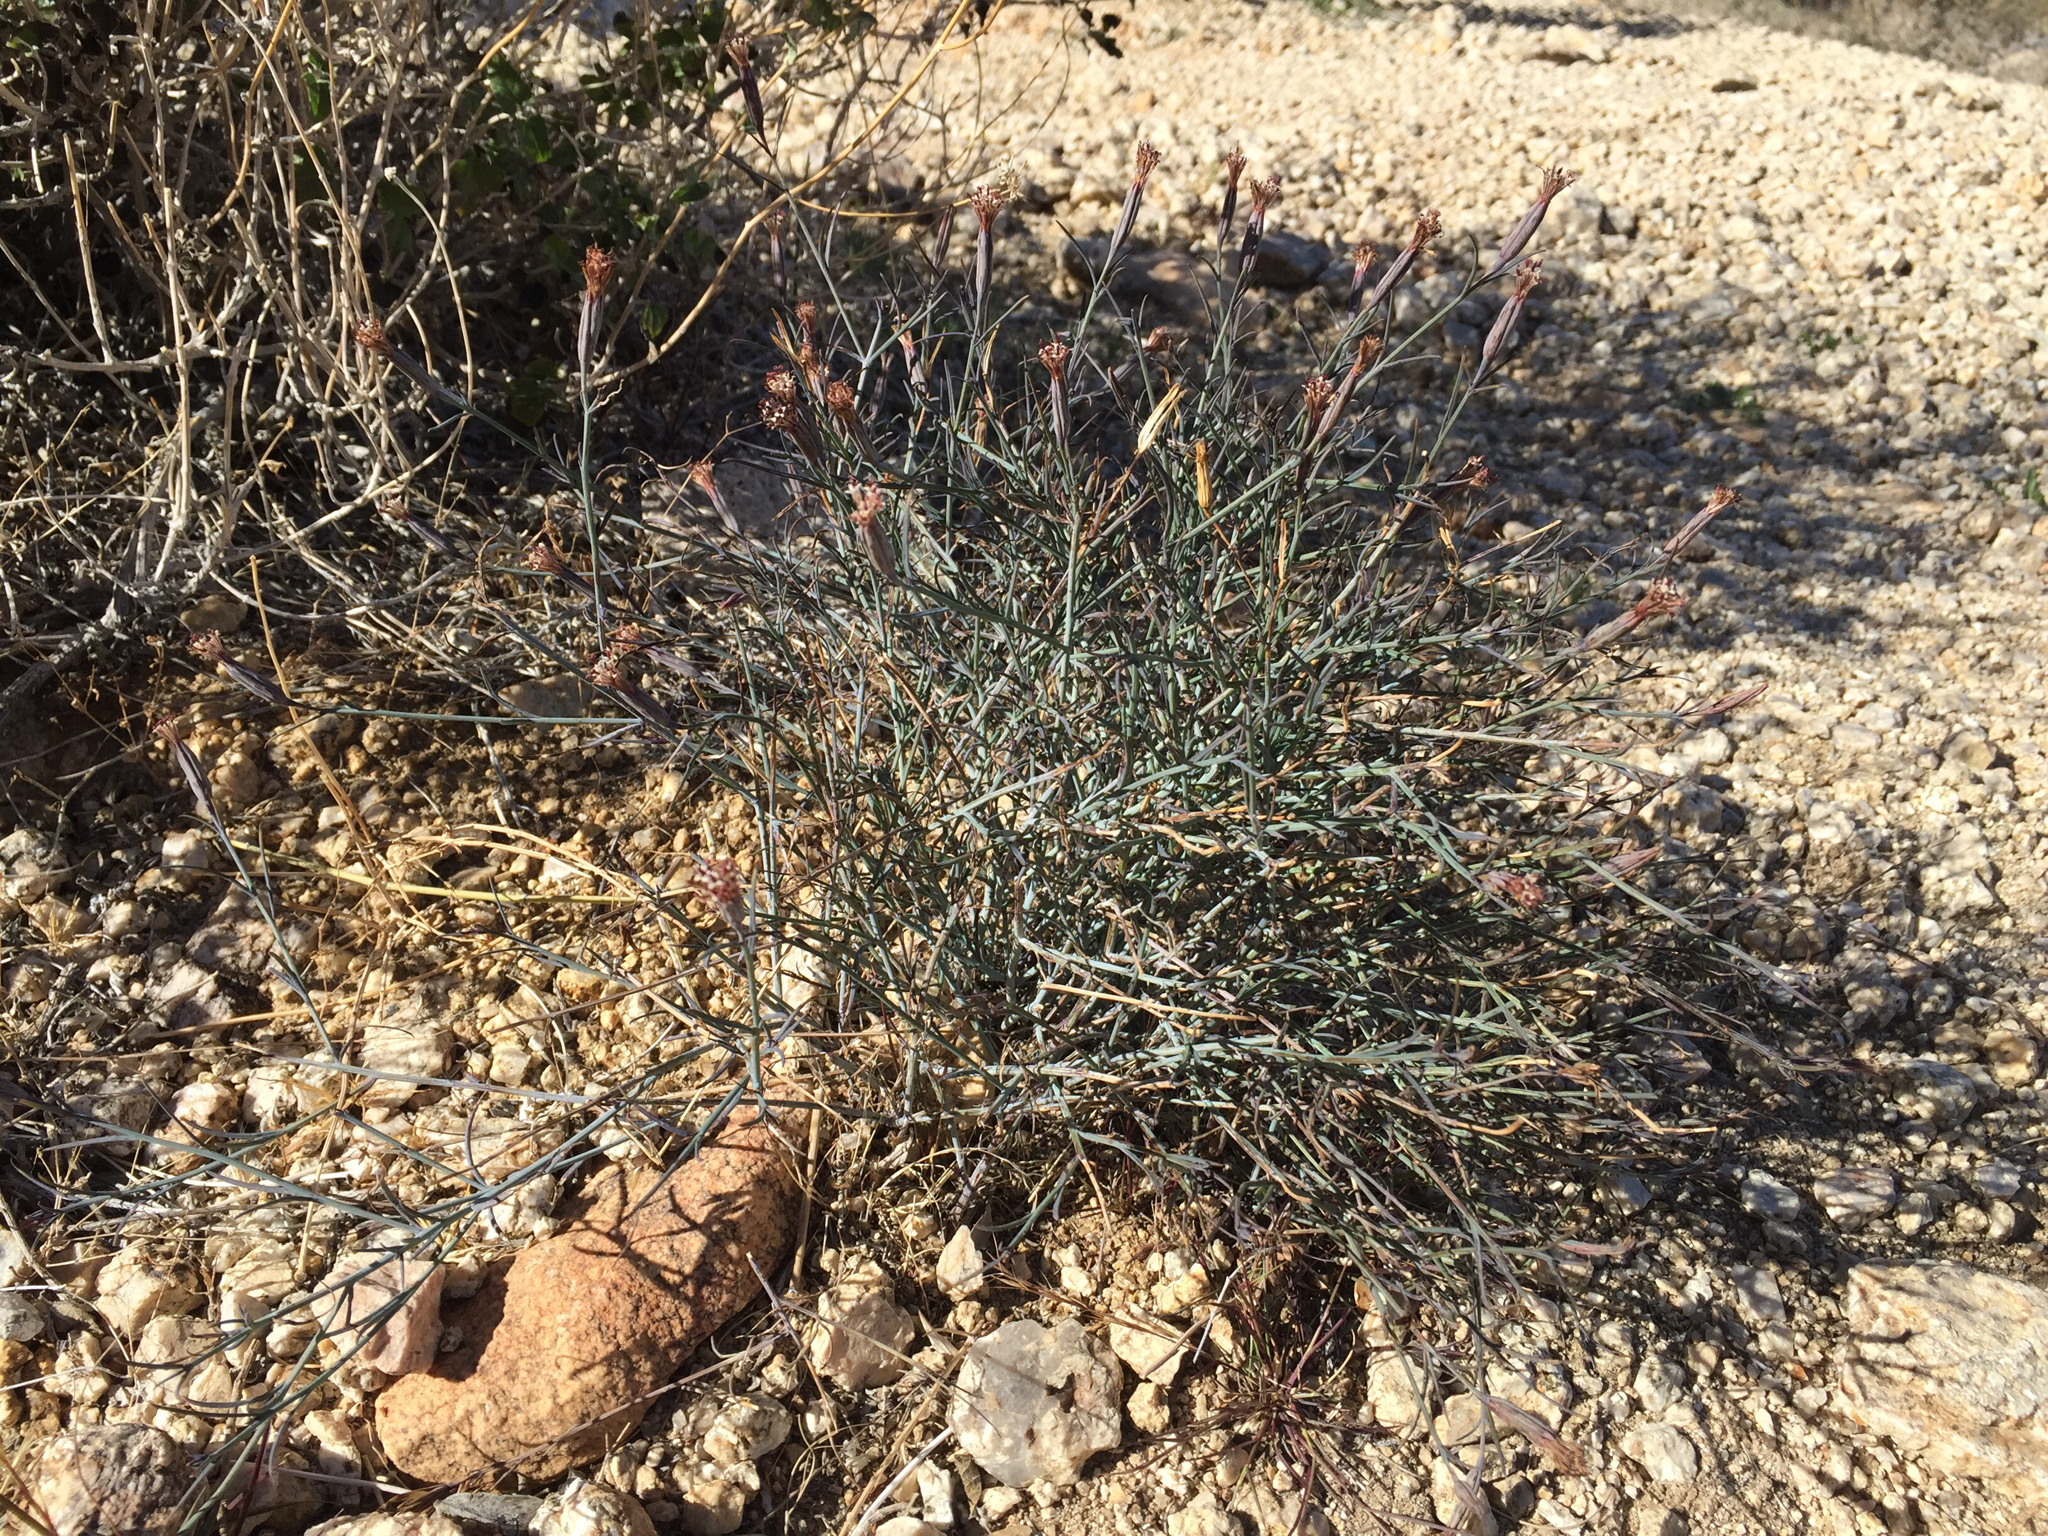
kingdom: Plantae
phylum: Tracheophyta
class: Magnoliopsida
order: Asterales
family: Asteraceae
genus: Porophyllum
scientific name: Porophyllum gracile
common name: Odora
